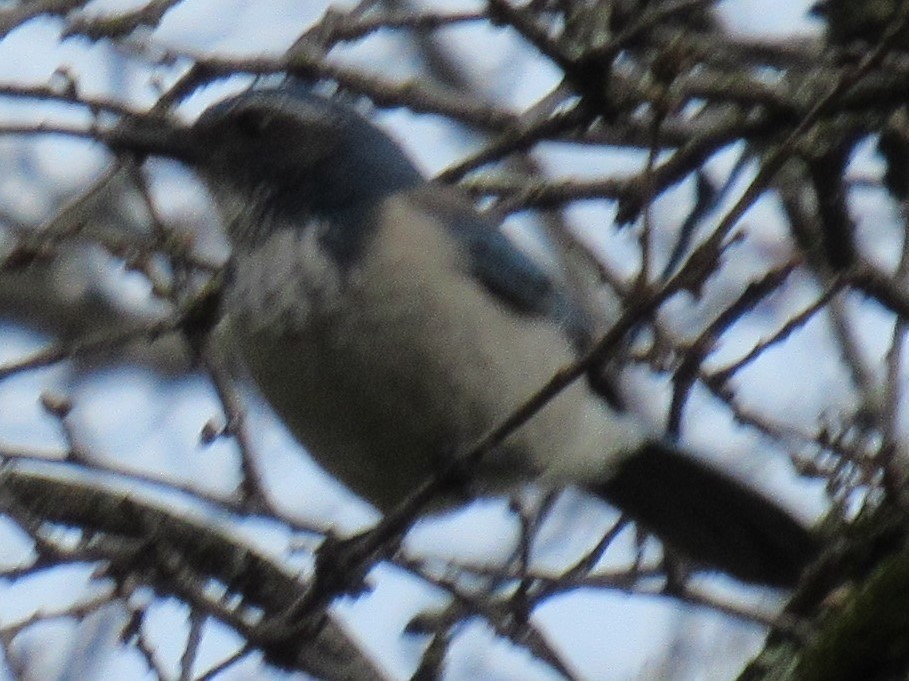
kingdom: Animalia
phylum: Chordata
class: Aves
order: Passeriformes
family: Corvidae
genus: Aphelocoma
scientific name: Aphelocoma californica
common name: California scrub-jay
